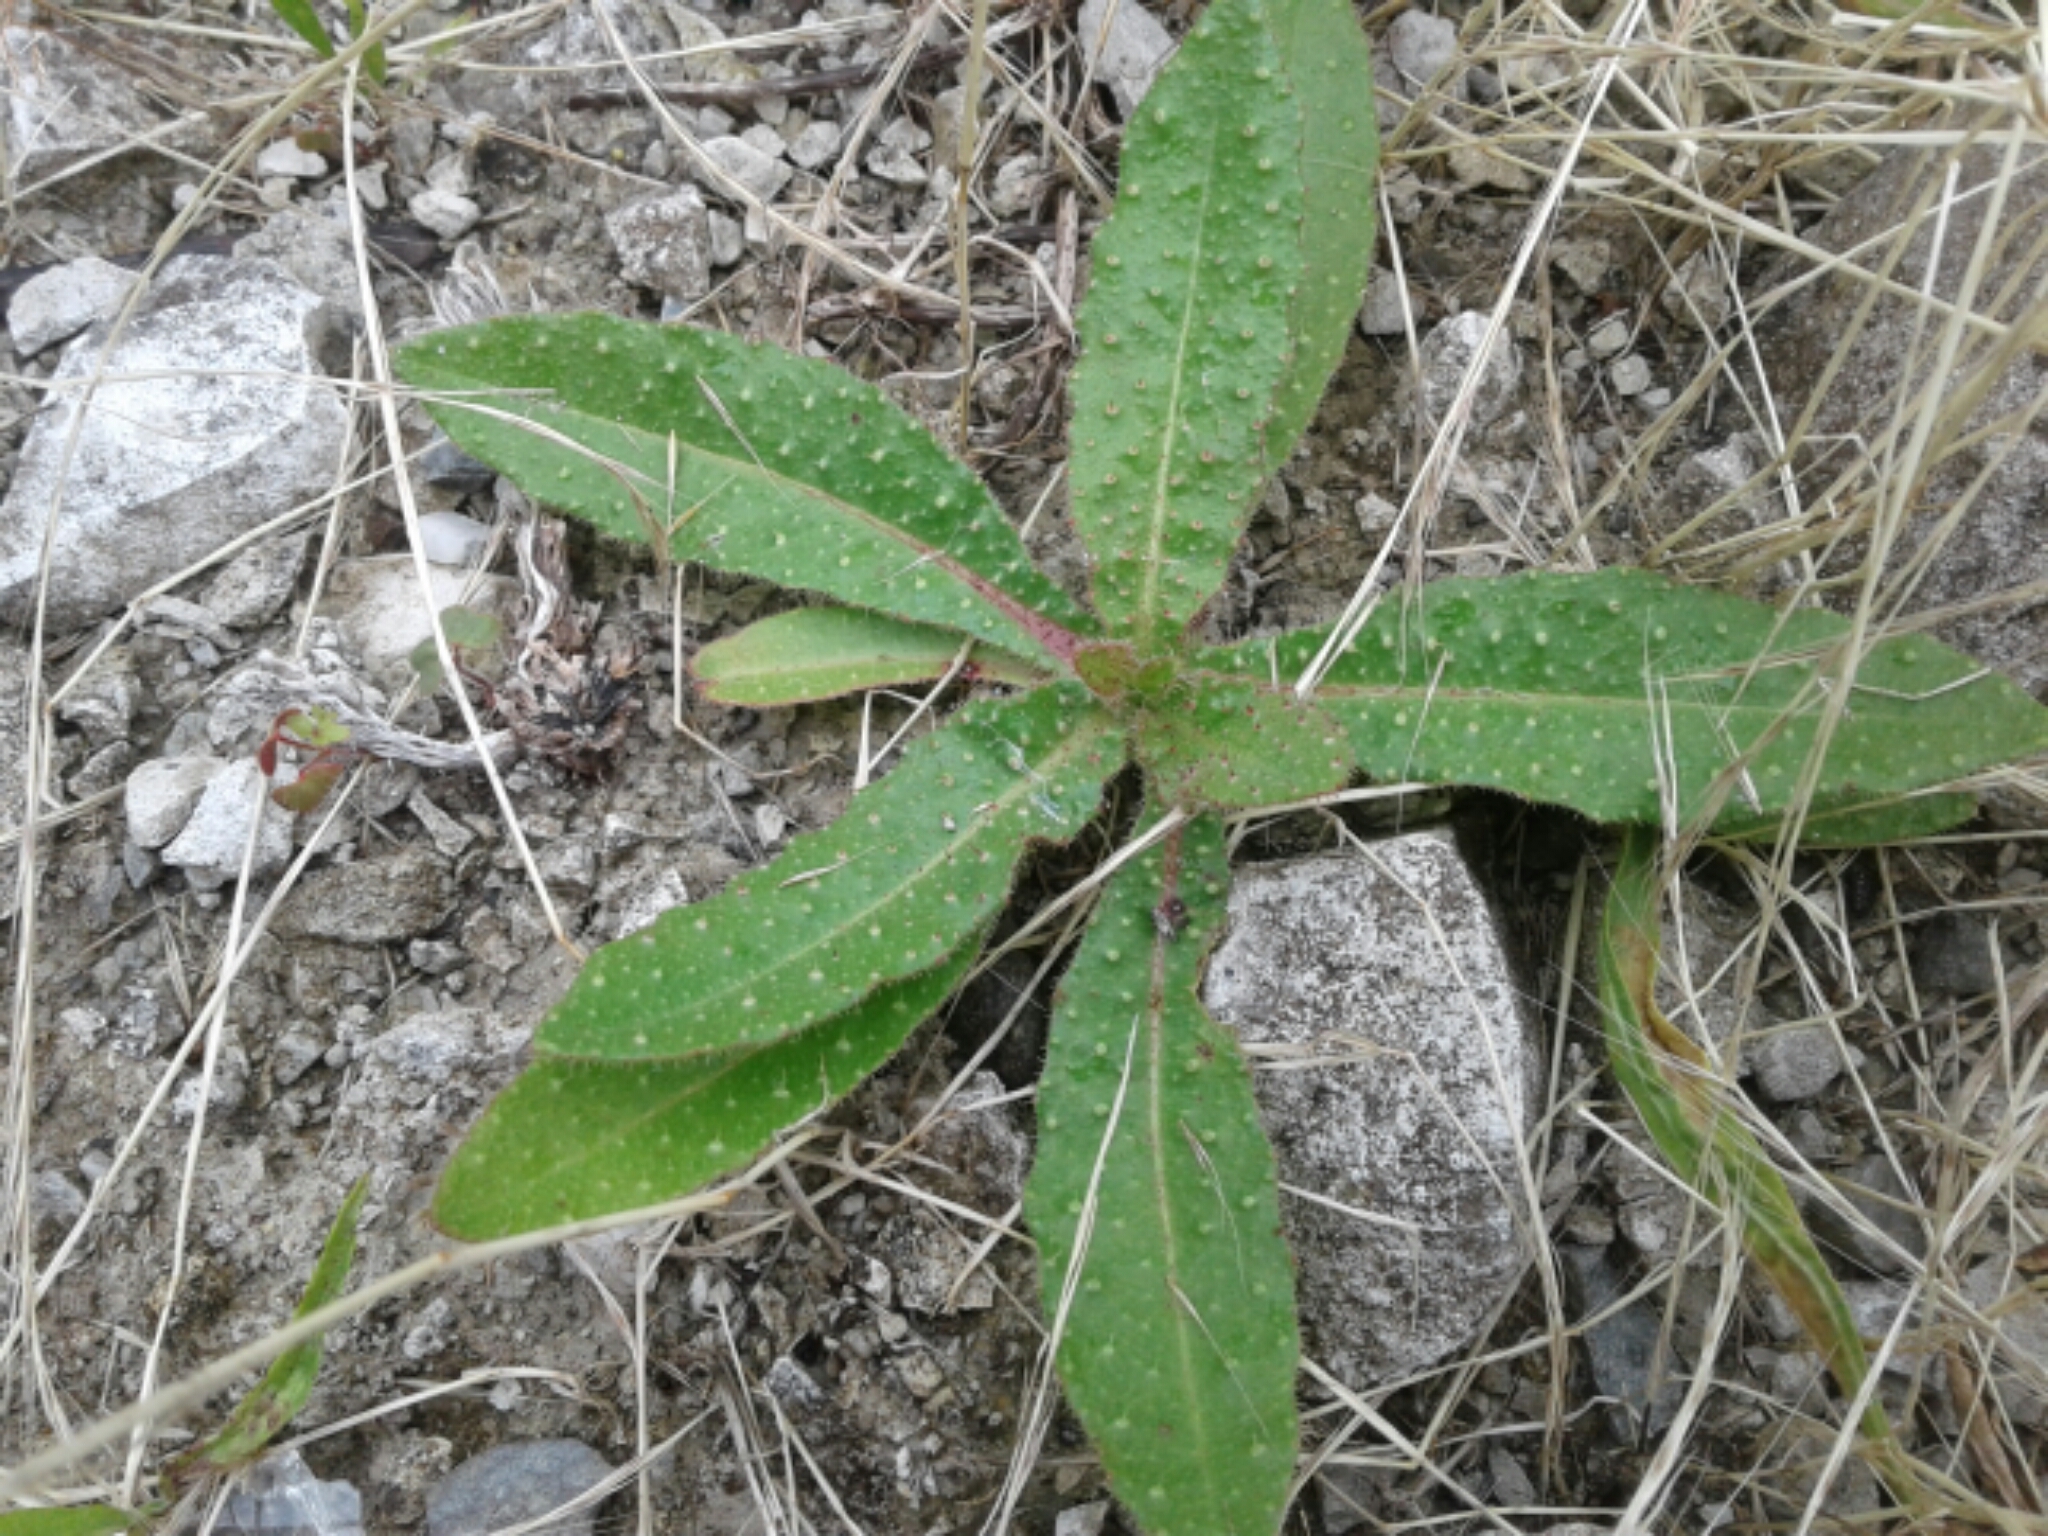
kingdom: Plantae
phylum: Tracheophyta
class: Magnoliopsida
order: Asterales
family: Asteraceae
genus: Helminthotheca
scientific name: Helminthotheca echioides
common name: Ox-tongue
